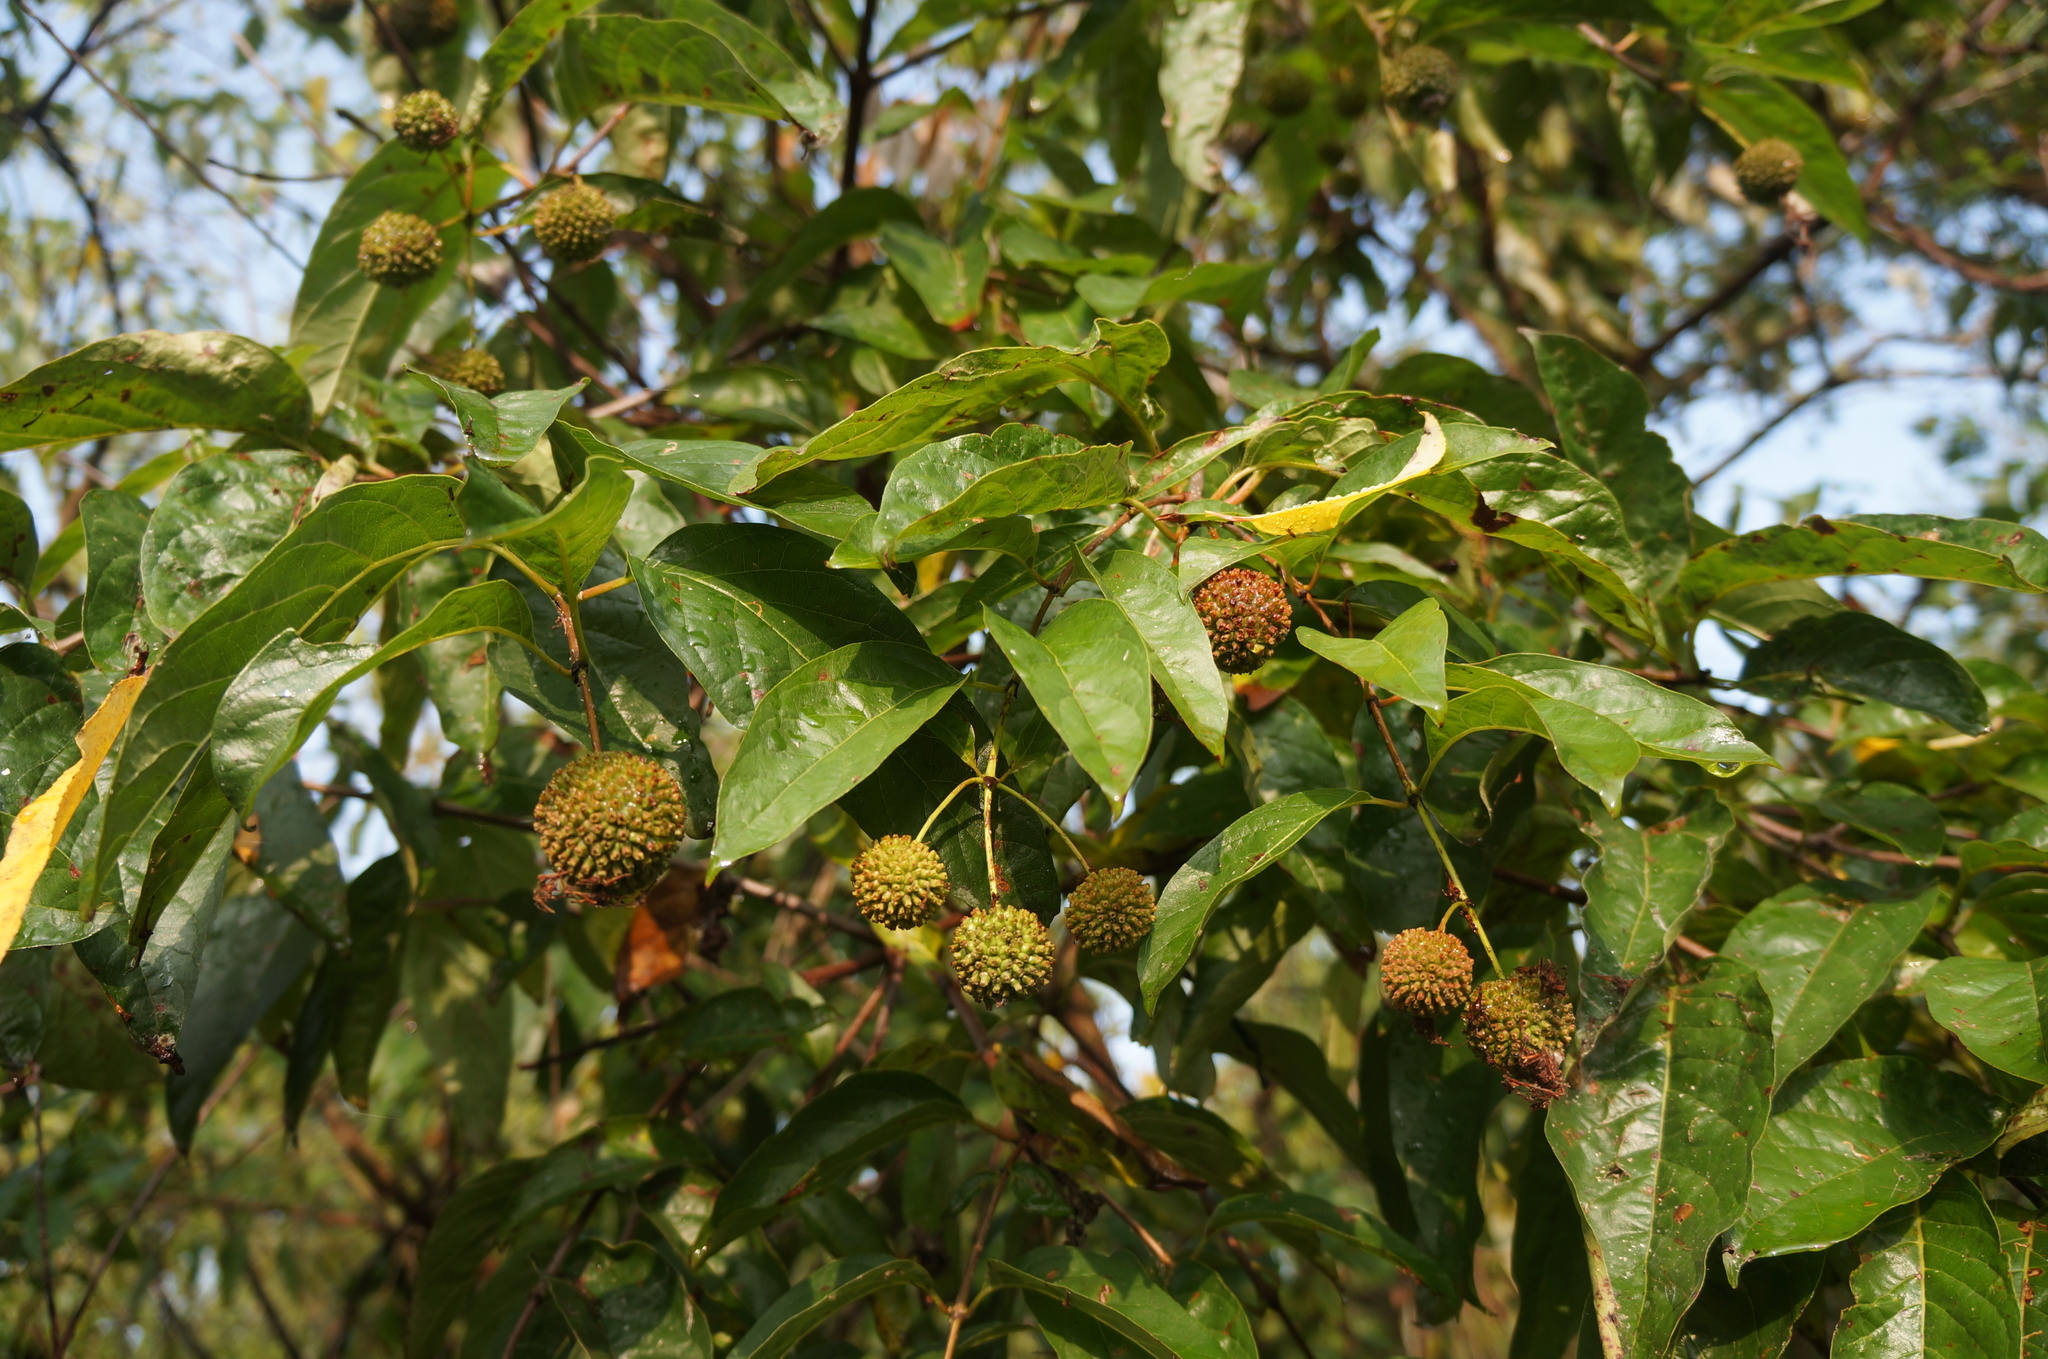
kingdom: Plantae
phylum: Tracheophyta
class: Magnoliopsida
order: Gentianales
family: Rubiaceae
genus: Cephalanthus
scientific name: Cephalanthus occidentalis
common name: Button-willow
